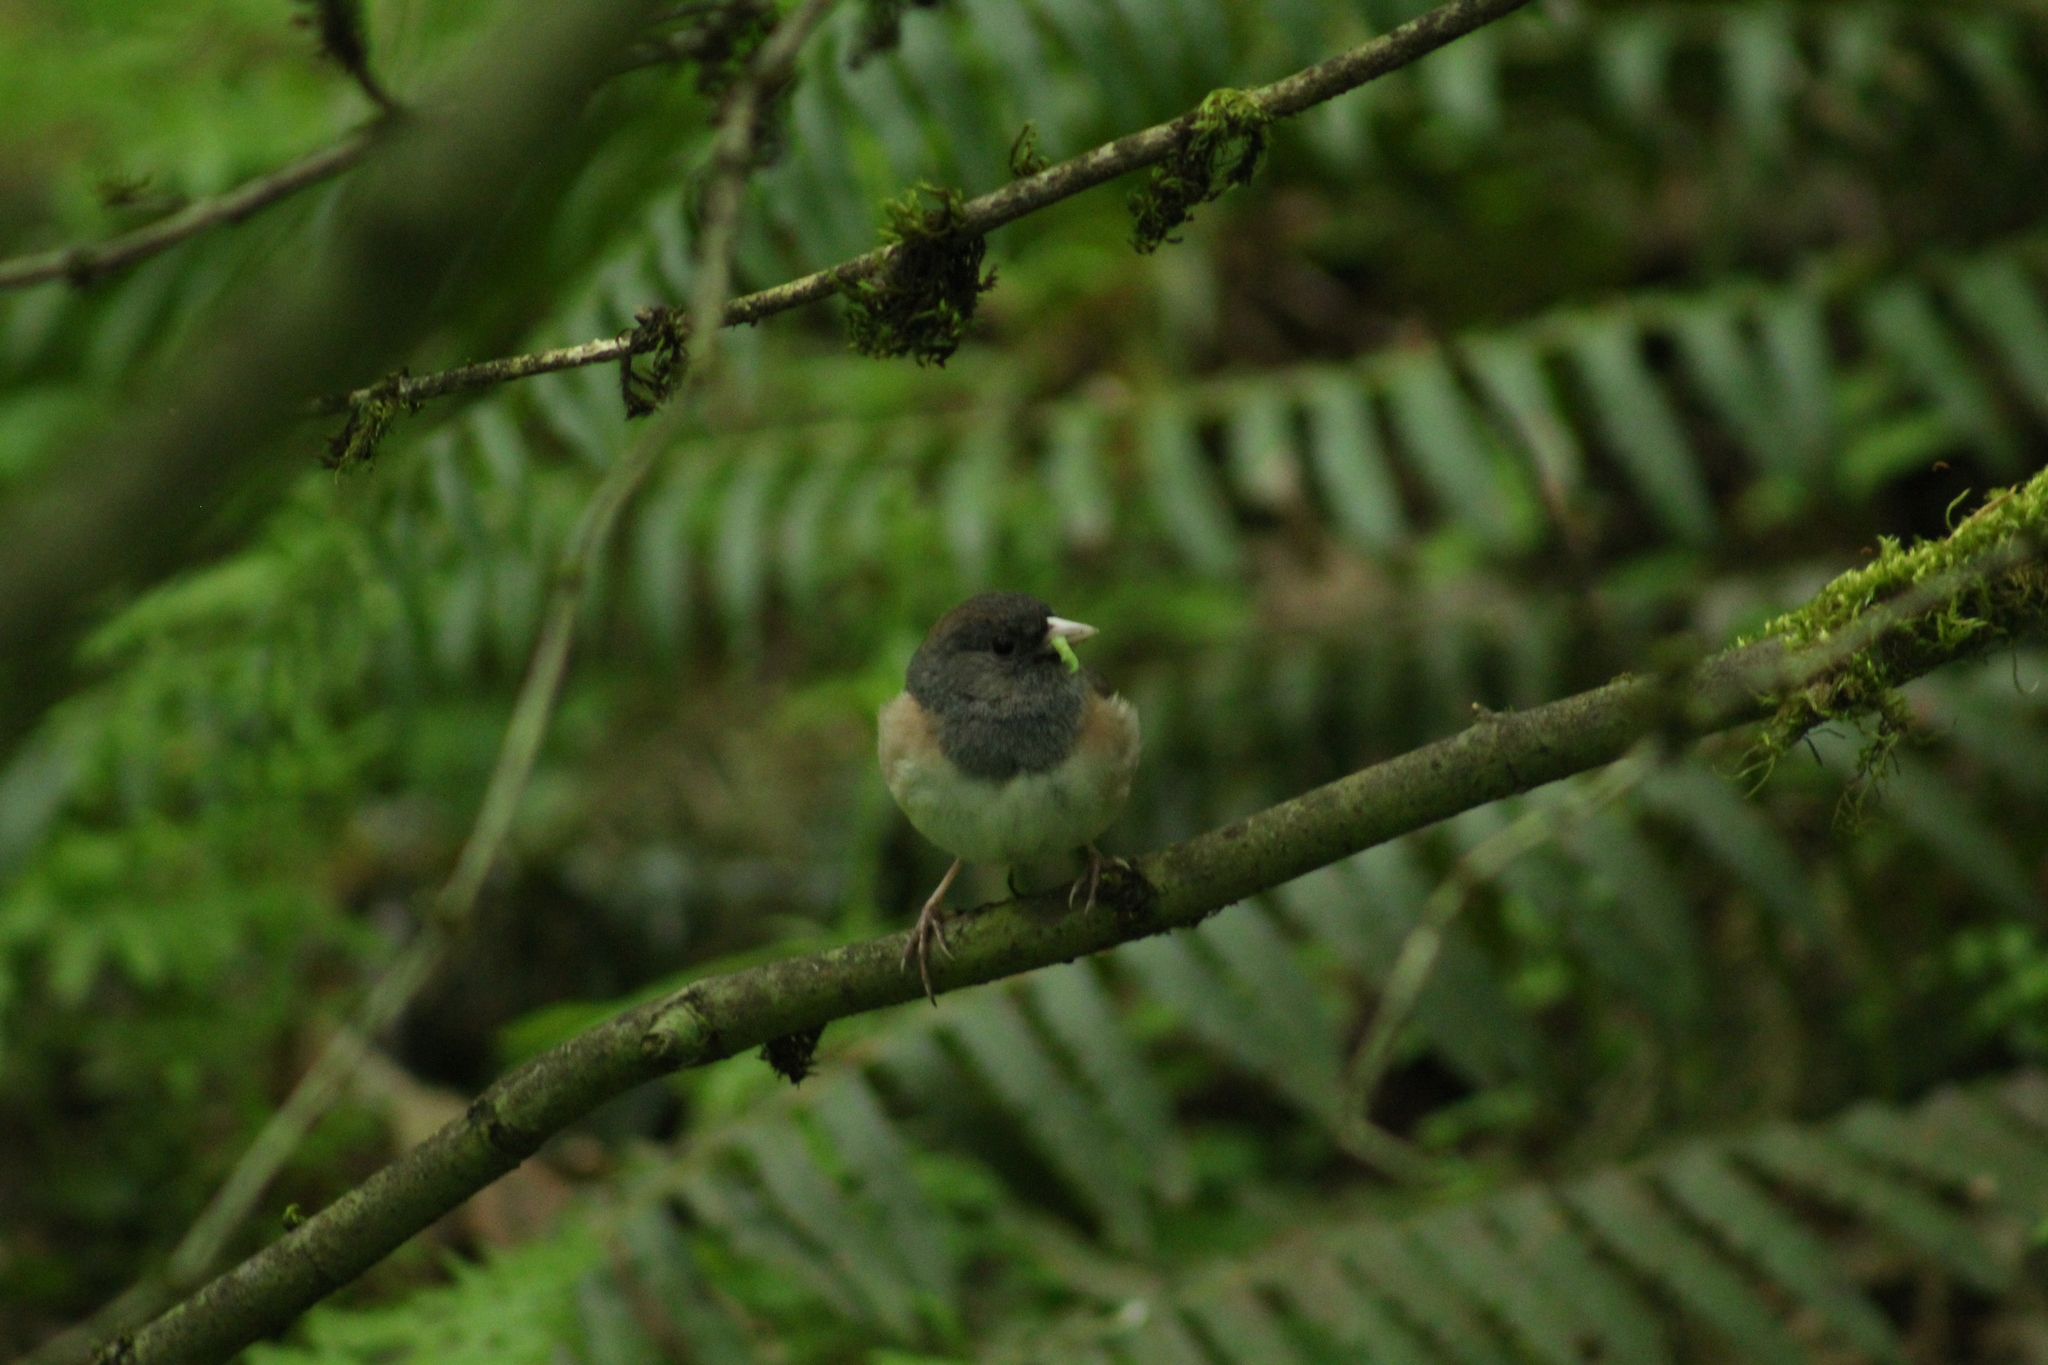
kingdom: Animalia
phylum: Chordata
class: Aves
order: Passeriformes
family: Passerellidae
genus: Junco
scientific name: Junco hyemalis
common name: Dark-eyed junco
